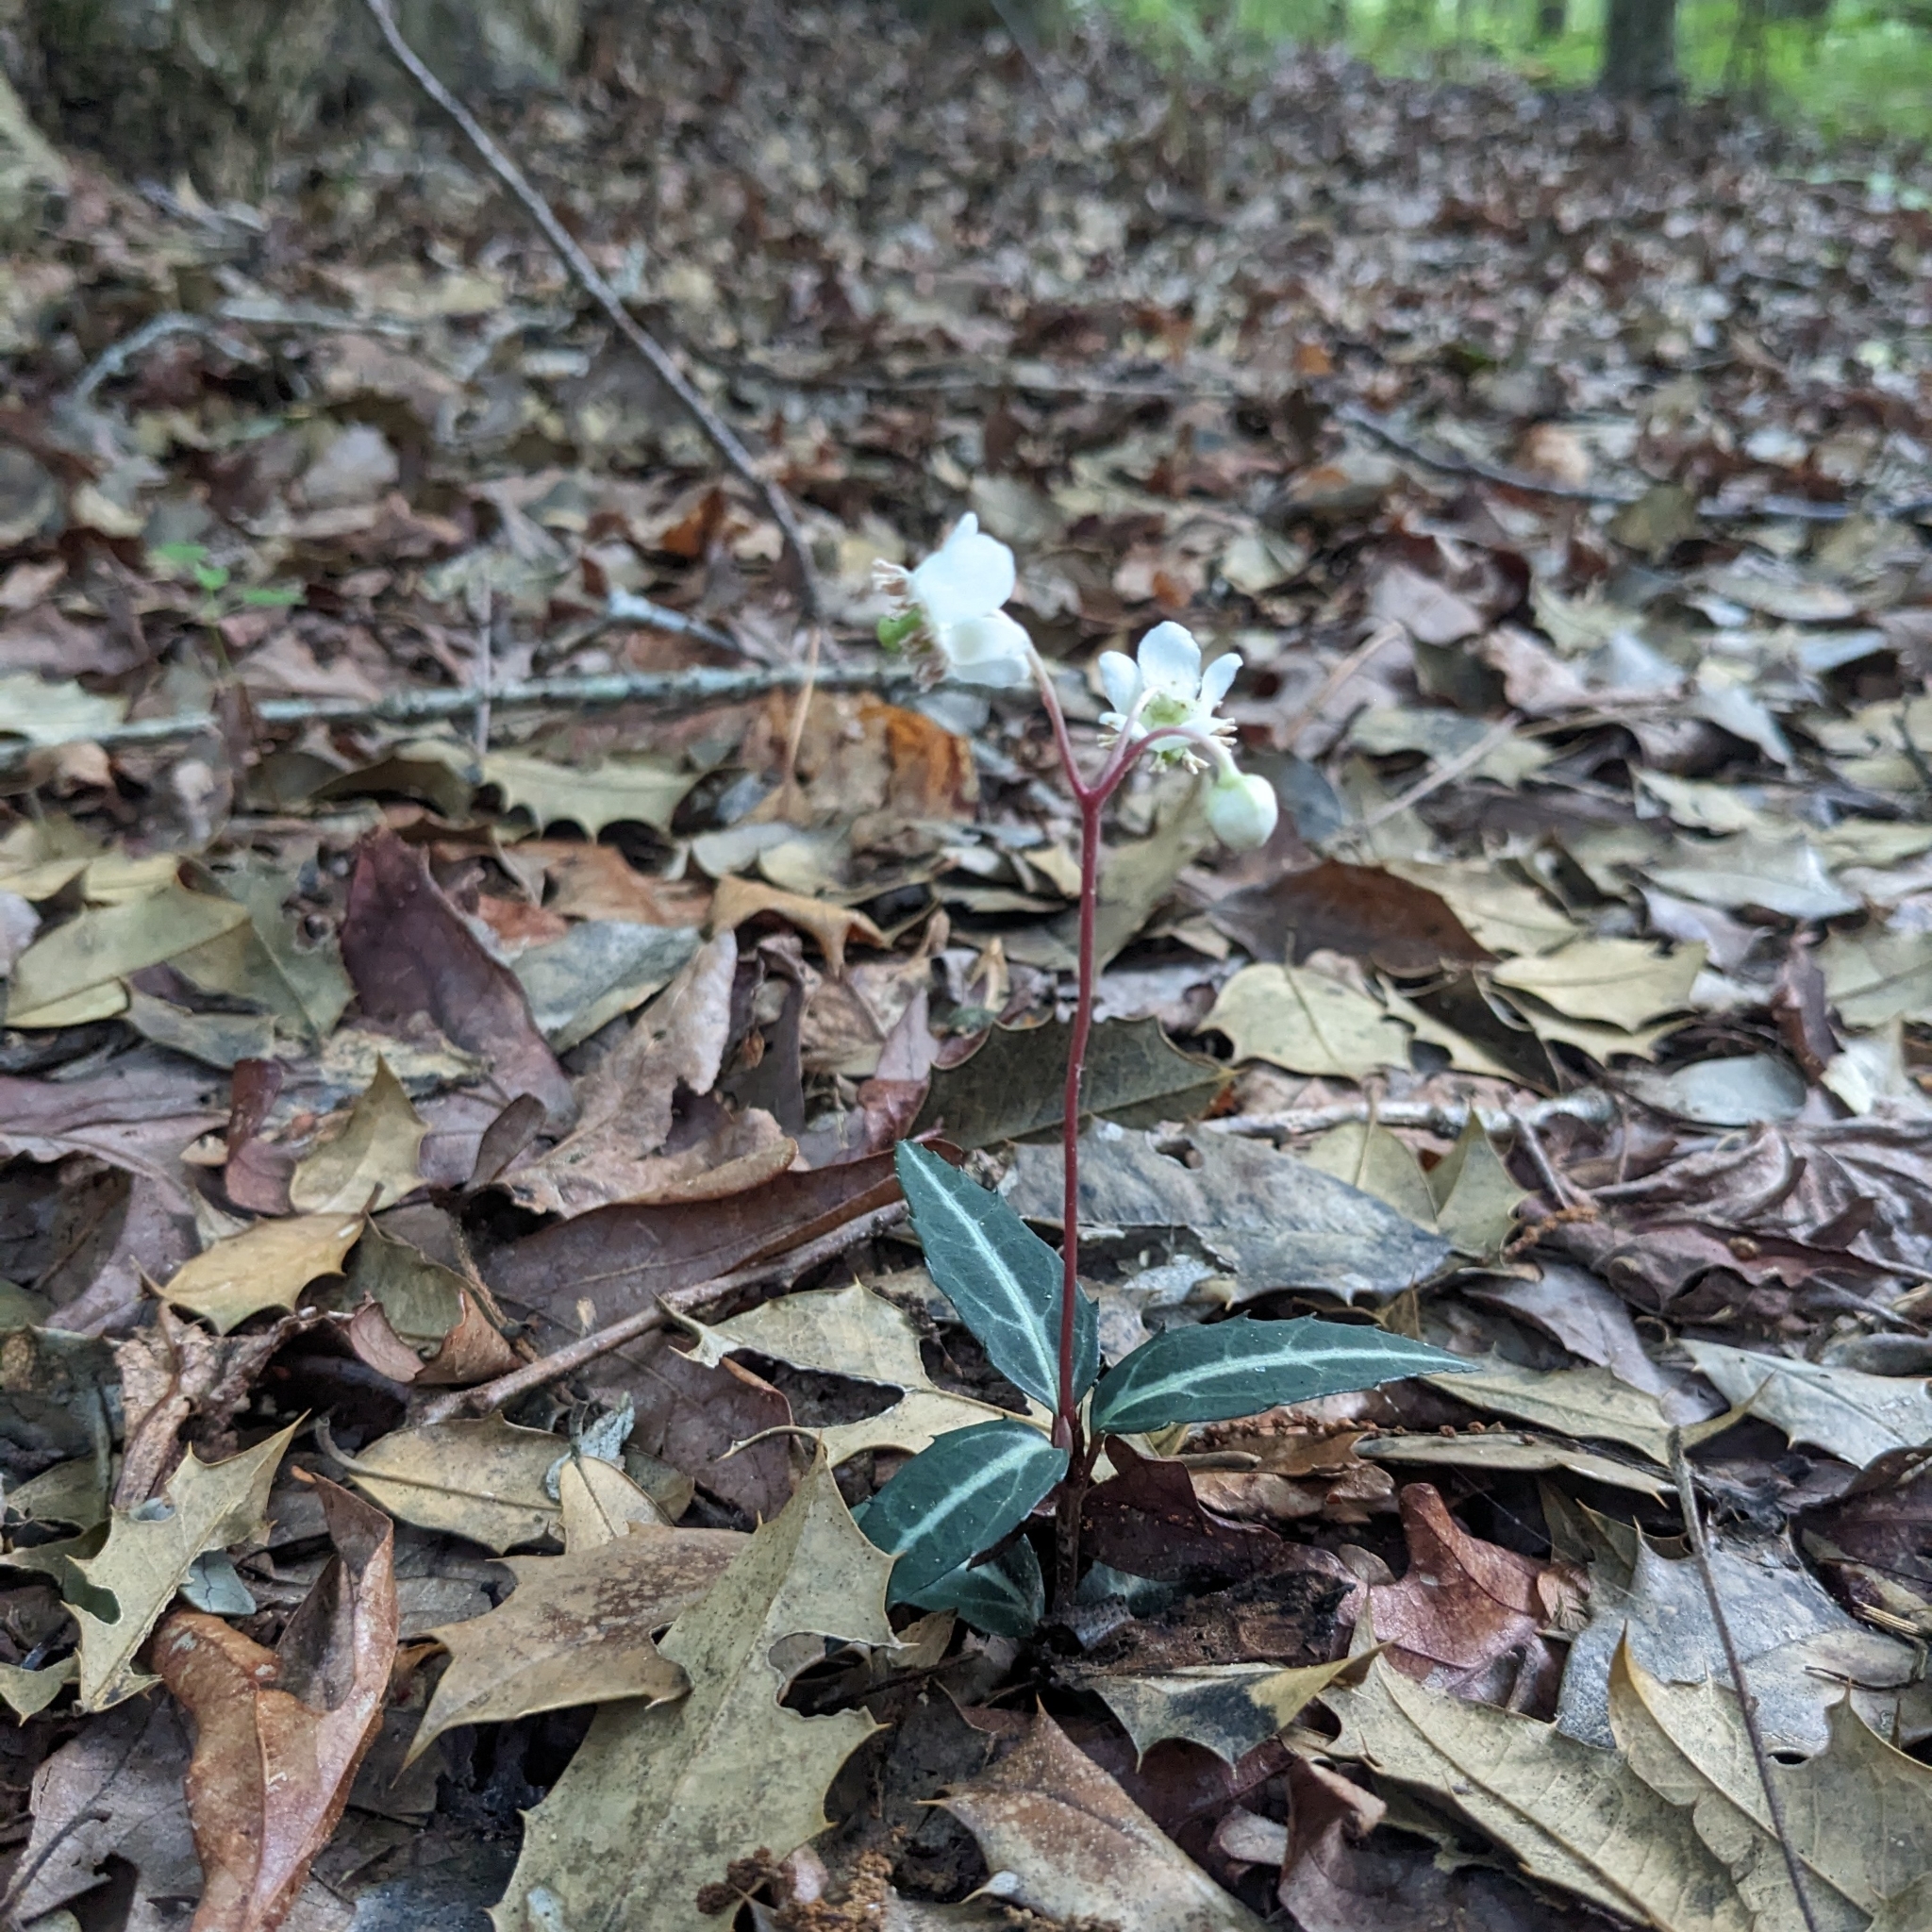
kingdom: Plantae
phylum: Tracheophyta
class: Magnoliopsida
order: Ericales
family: Ericaceae
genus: Chimaphila
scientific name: Chimaphila maculata
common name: Spotted pipsissewa
